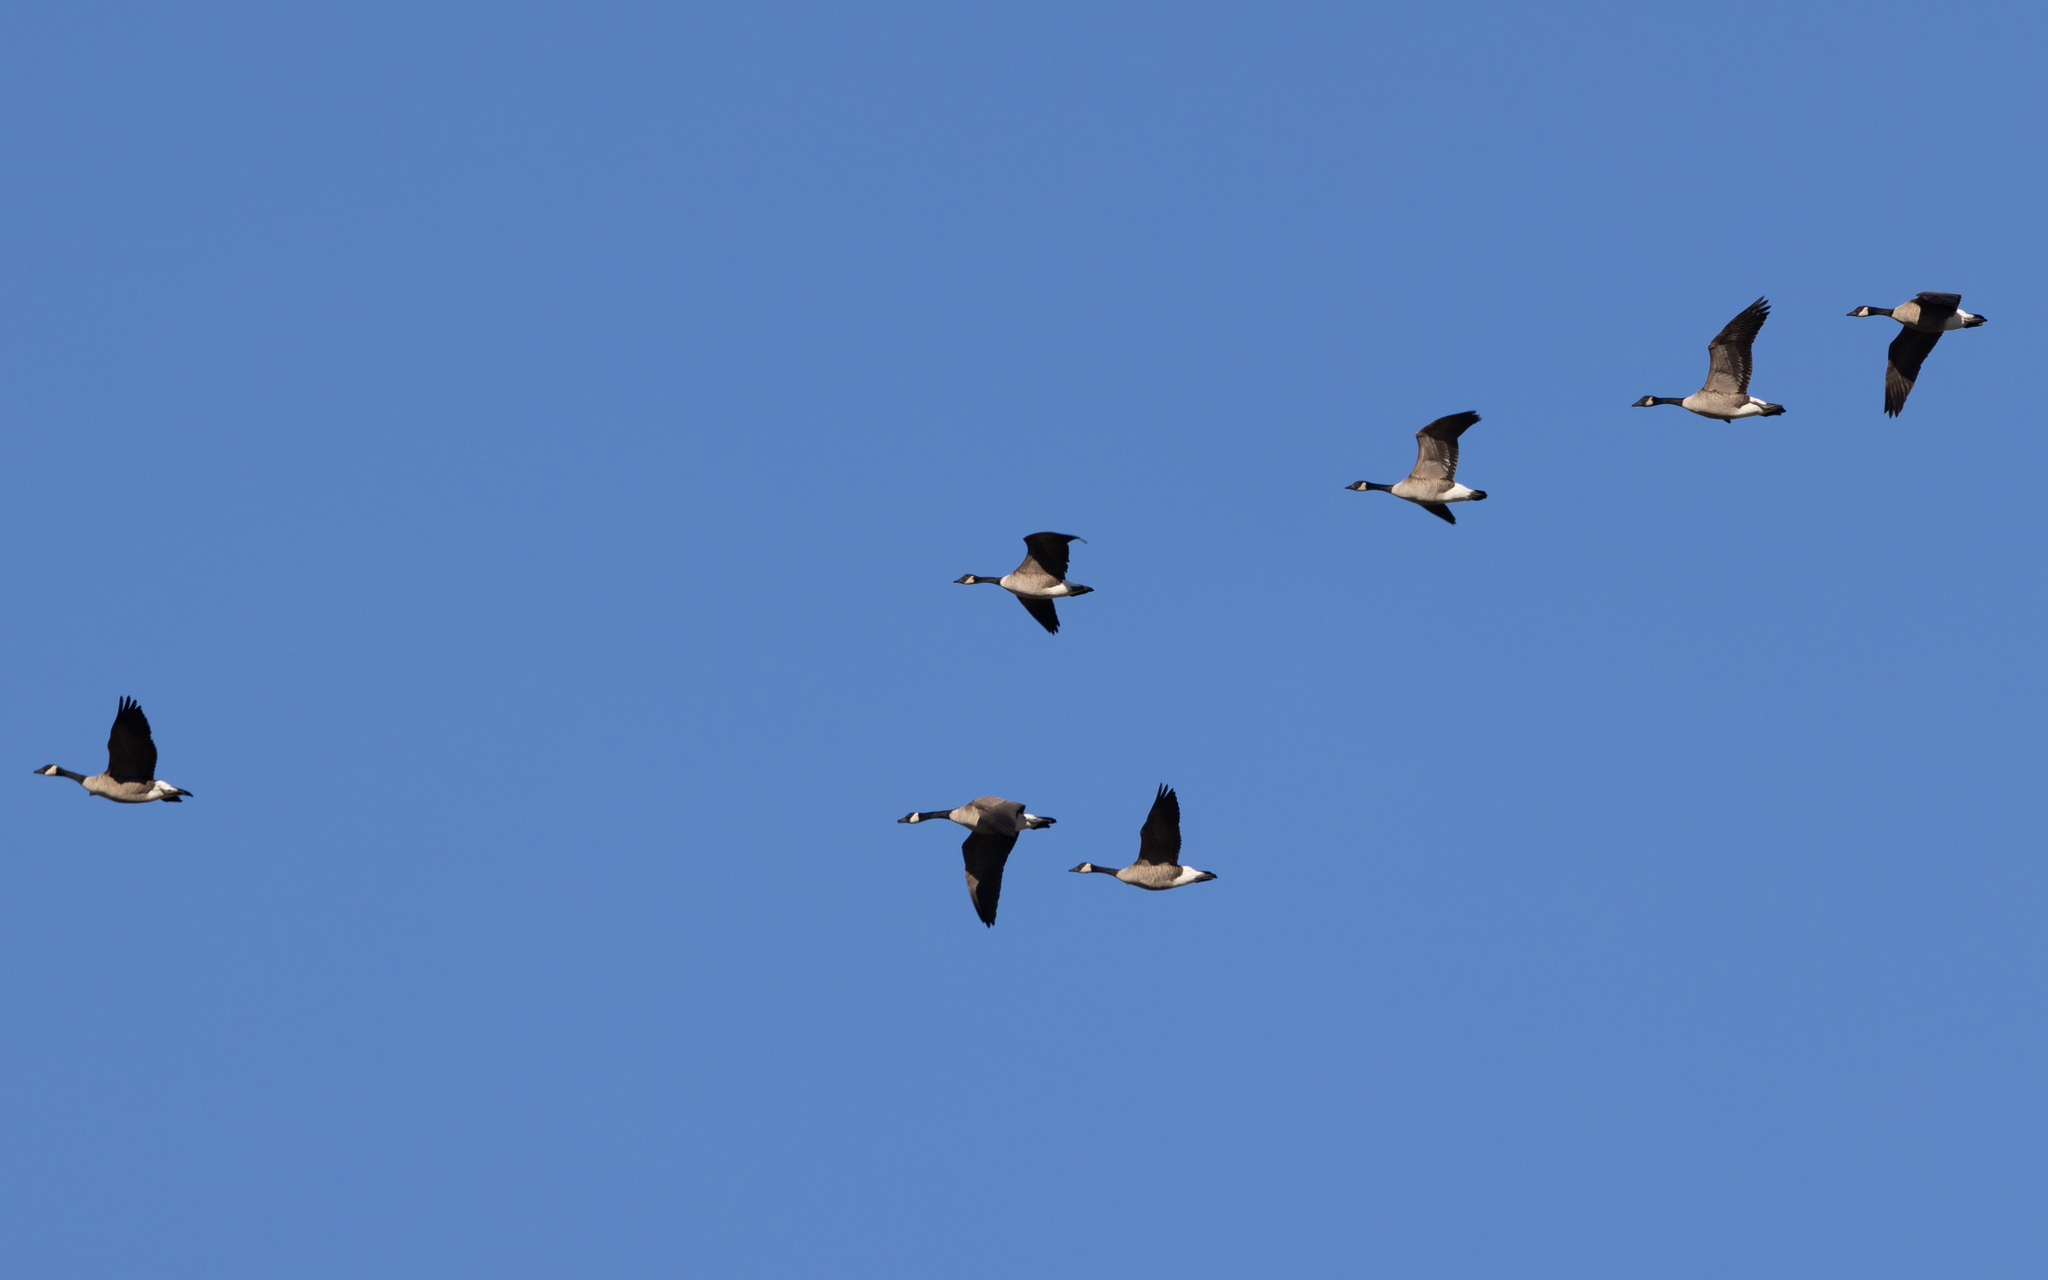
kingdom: Animalia
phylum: Chordata
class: Aves
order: Anseriformes
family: Anatidae
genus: Branta
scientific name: Branta canadensis
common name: Canada goose
